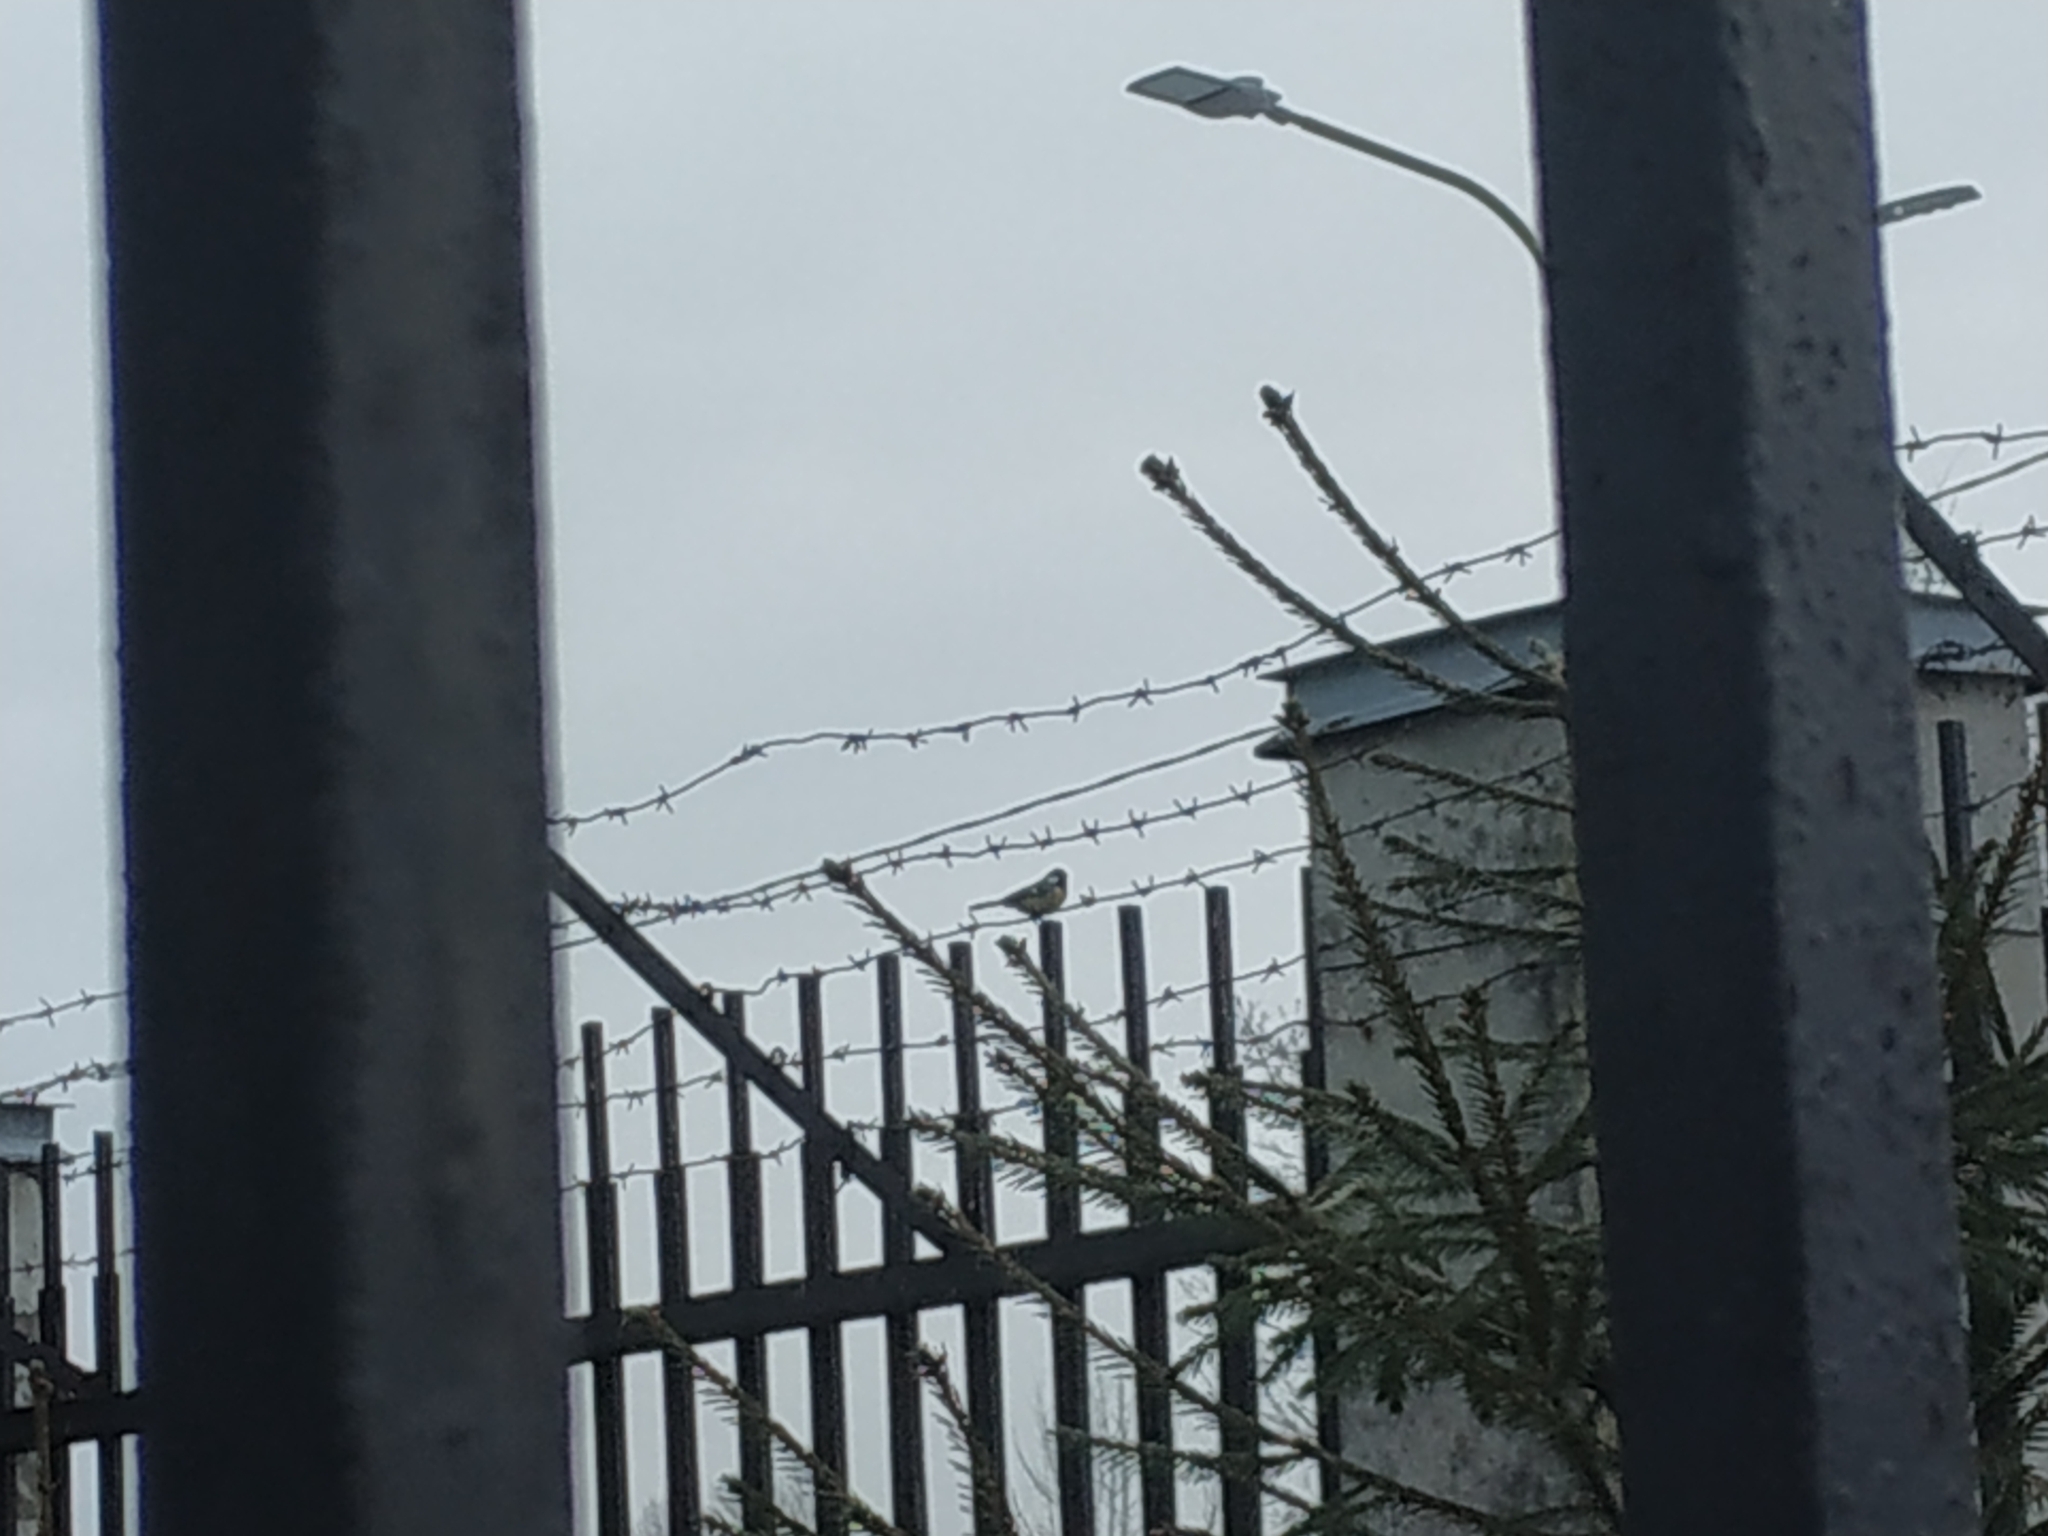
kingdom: Animalia
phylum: Chordata
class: Aves
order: Passeriformes
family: Paridae
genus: Parus
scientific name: Parus major
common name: Great tit
